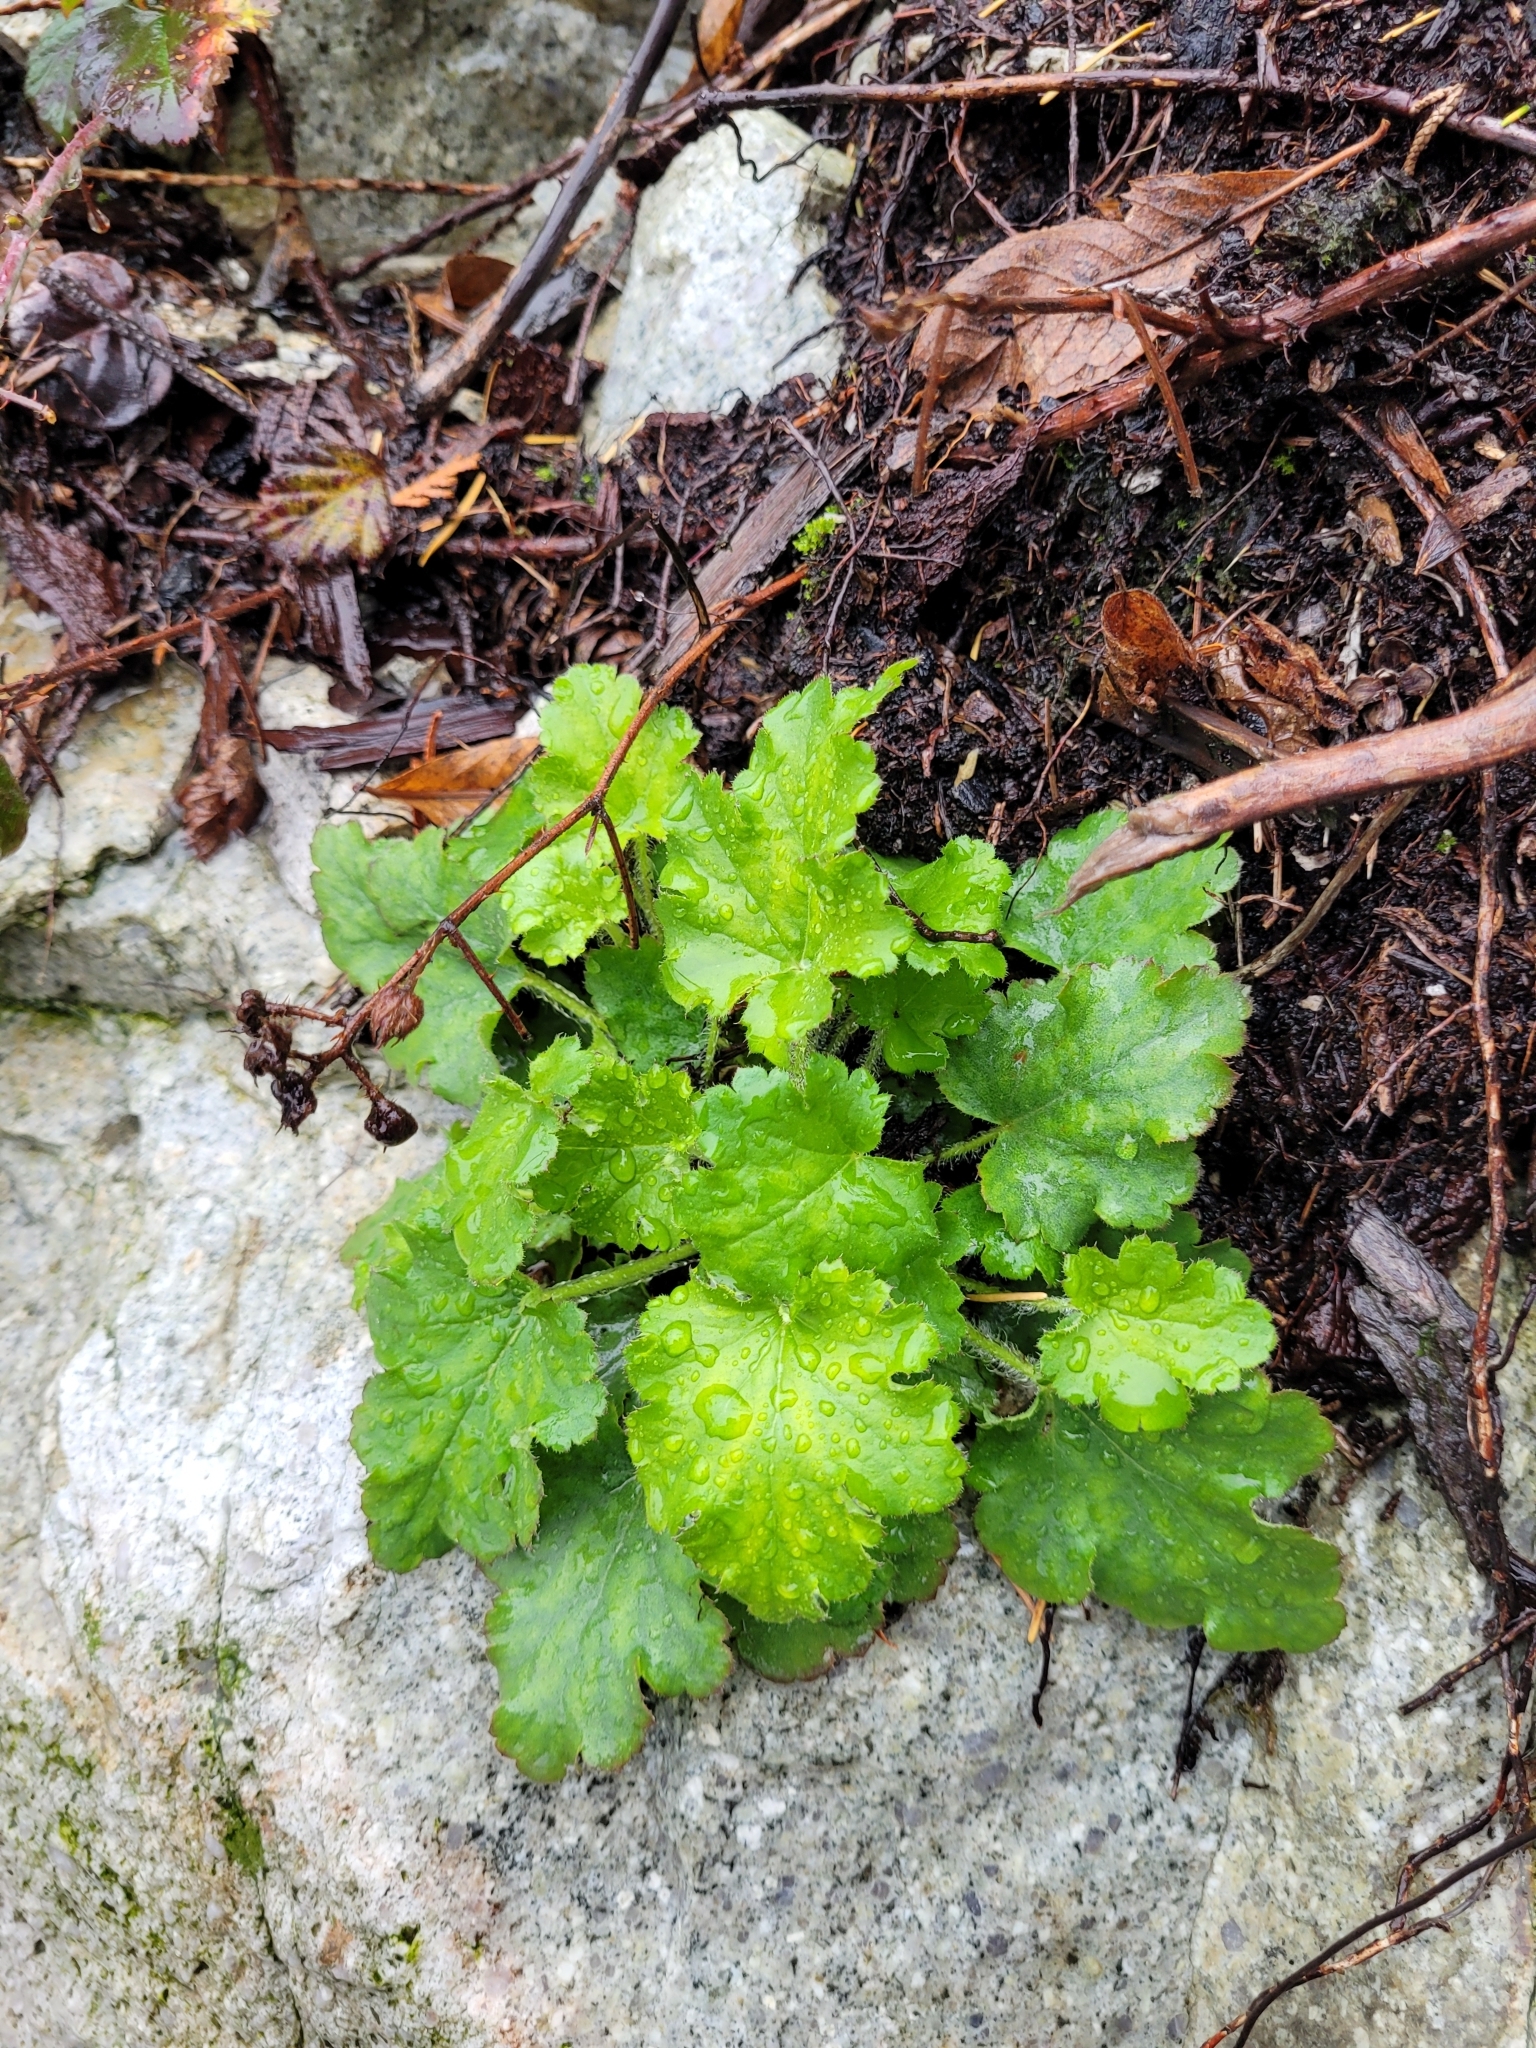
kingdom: Plantae
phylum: Tracheophyta
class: Magnoliopsida
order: Saxifragales
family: Saxifragaceae
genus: Heuchera
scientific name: Heuchera micrantha
